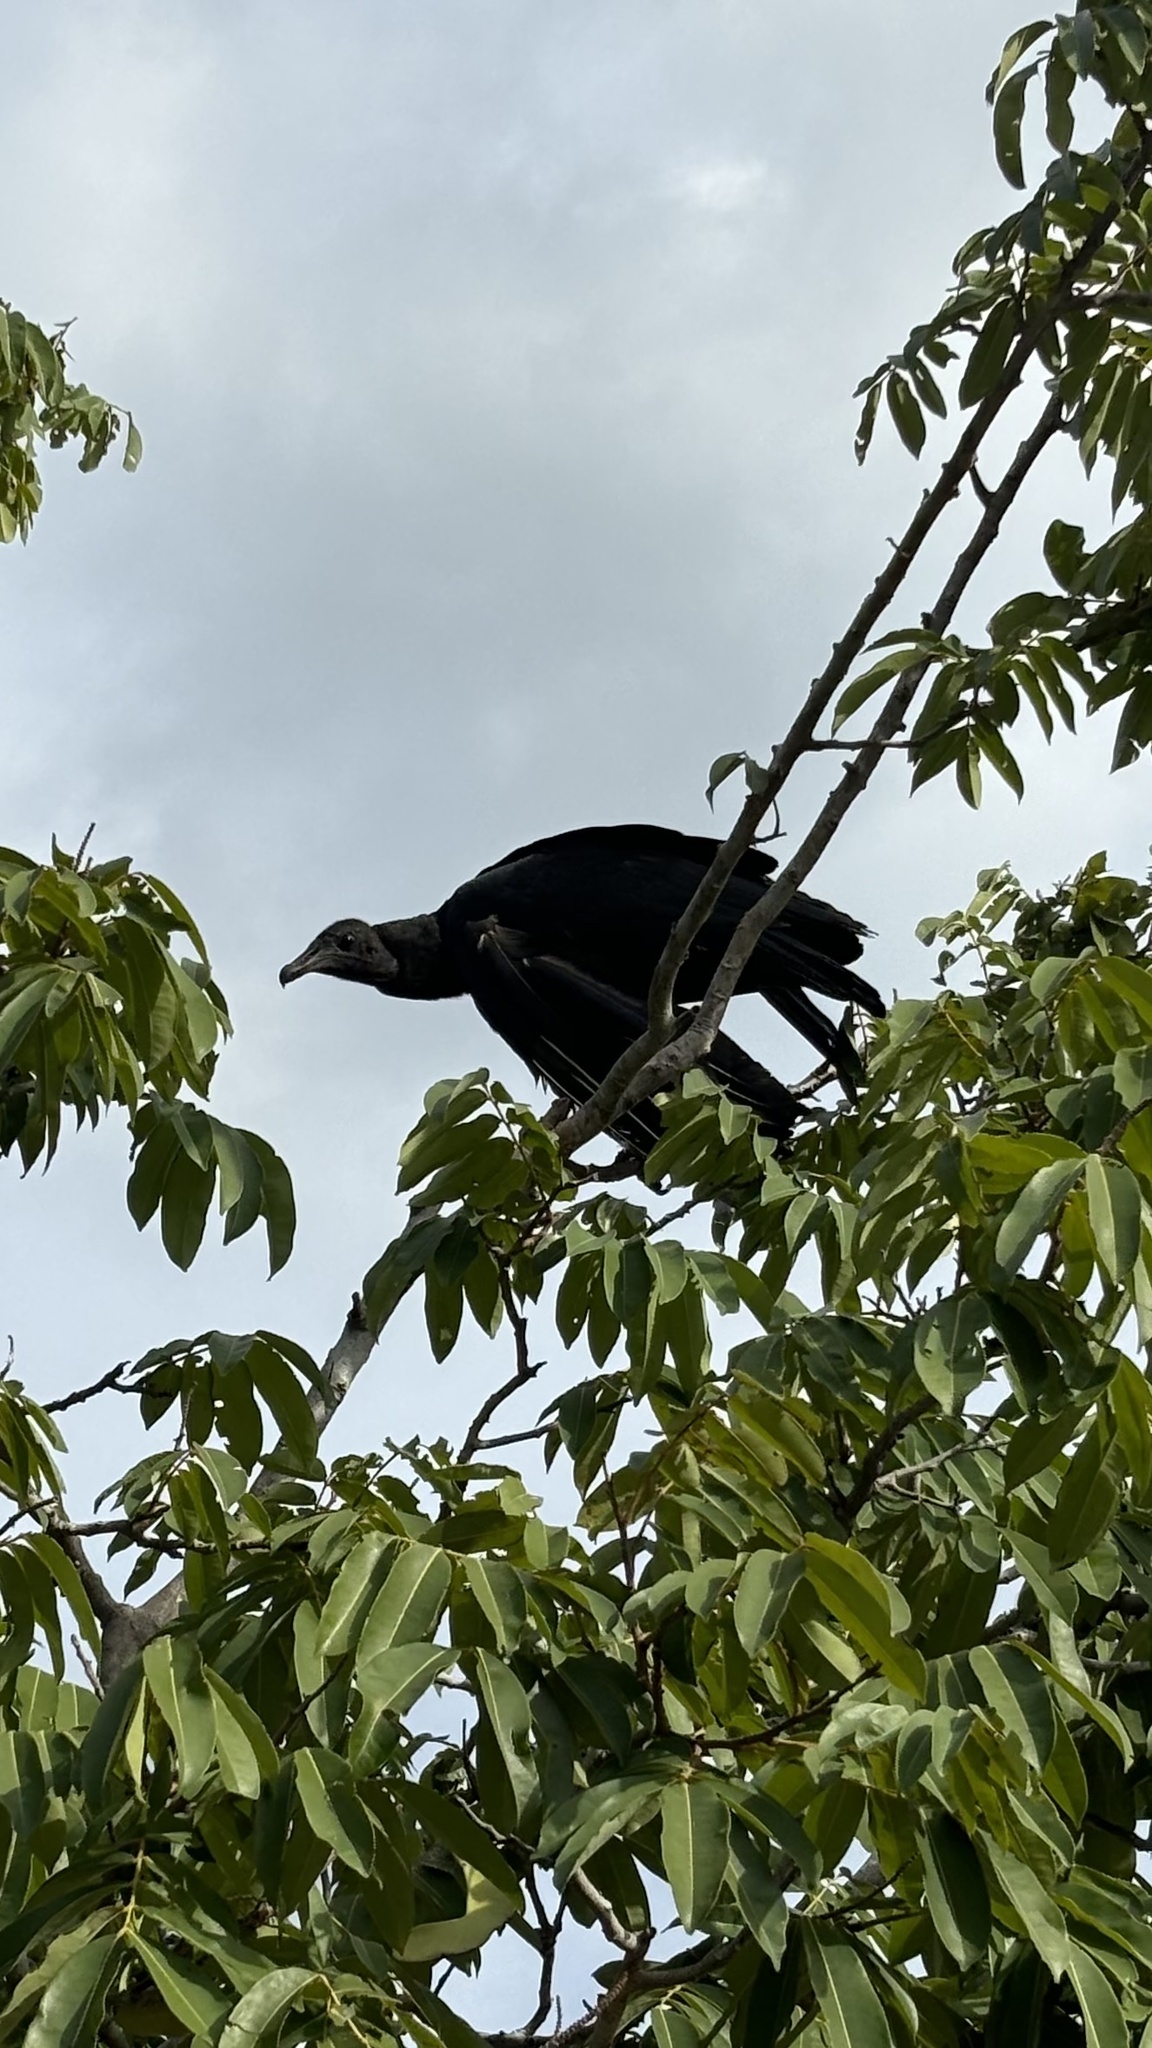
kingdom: Animalia
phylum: Chordata
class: Aves
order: Accipitriformes
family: Cathartidae
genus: Coragyps
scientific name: Coragyps atratus
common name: Black vulture
